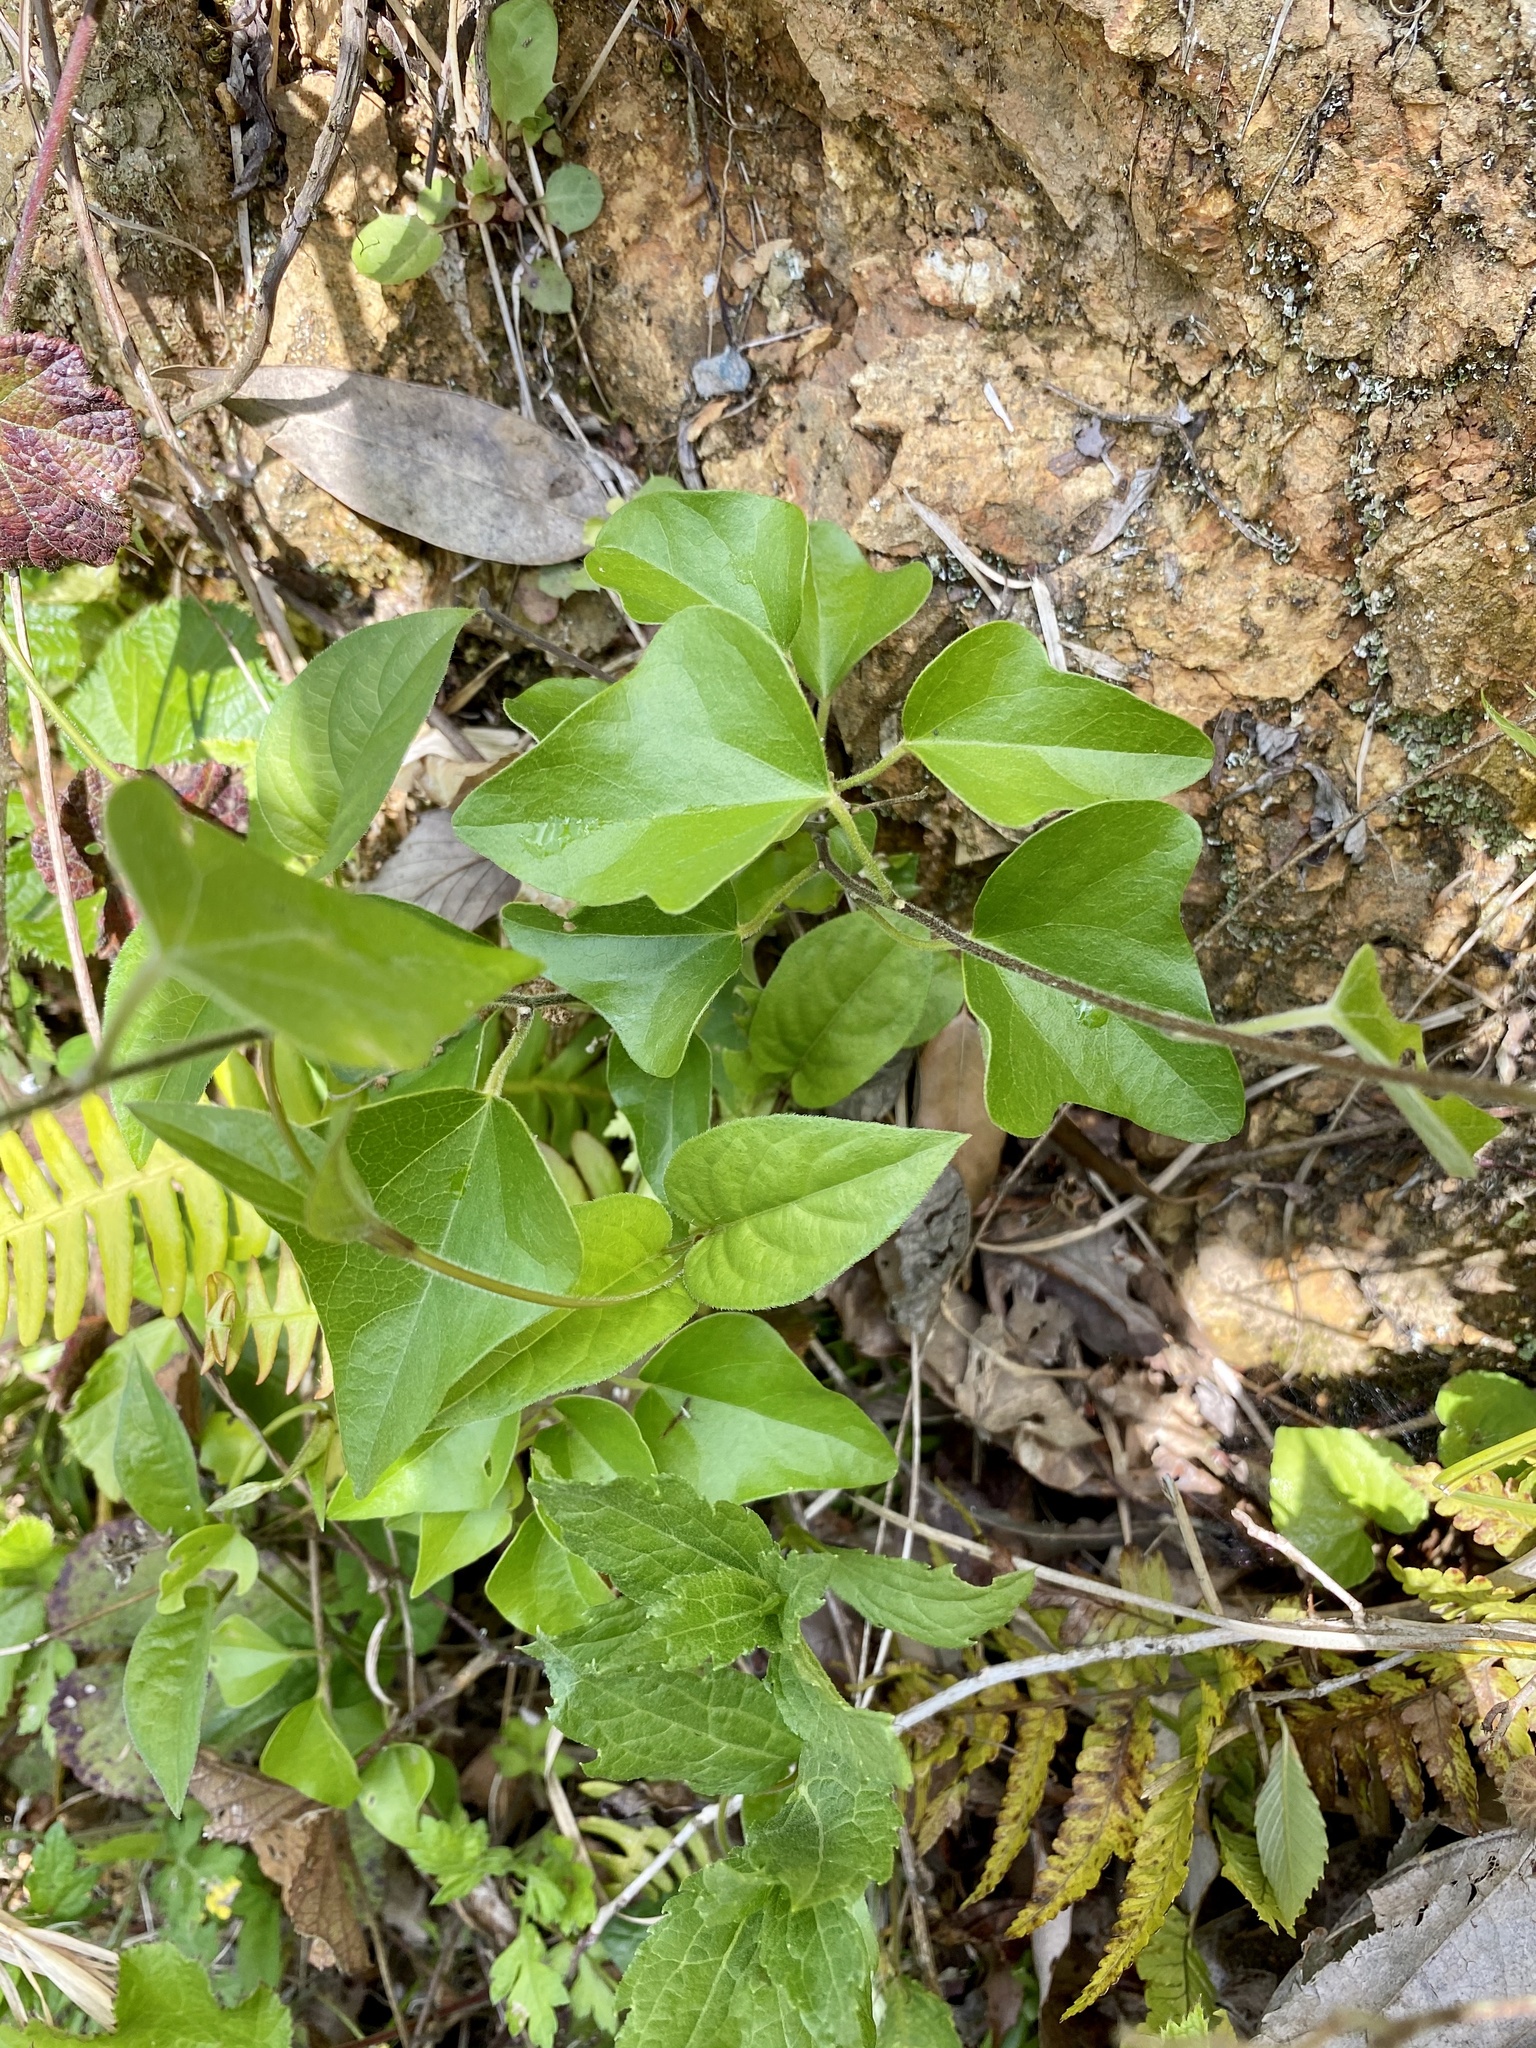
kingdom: Plantae
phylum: Tracheophyta
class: Magnoliopsida
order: Ranunculales
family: Menispermaceae
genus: Cocculus
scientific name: Cocculus orbiculatus
